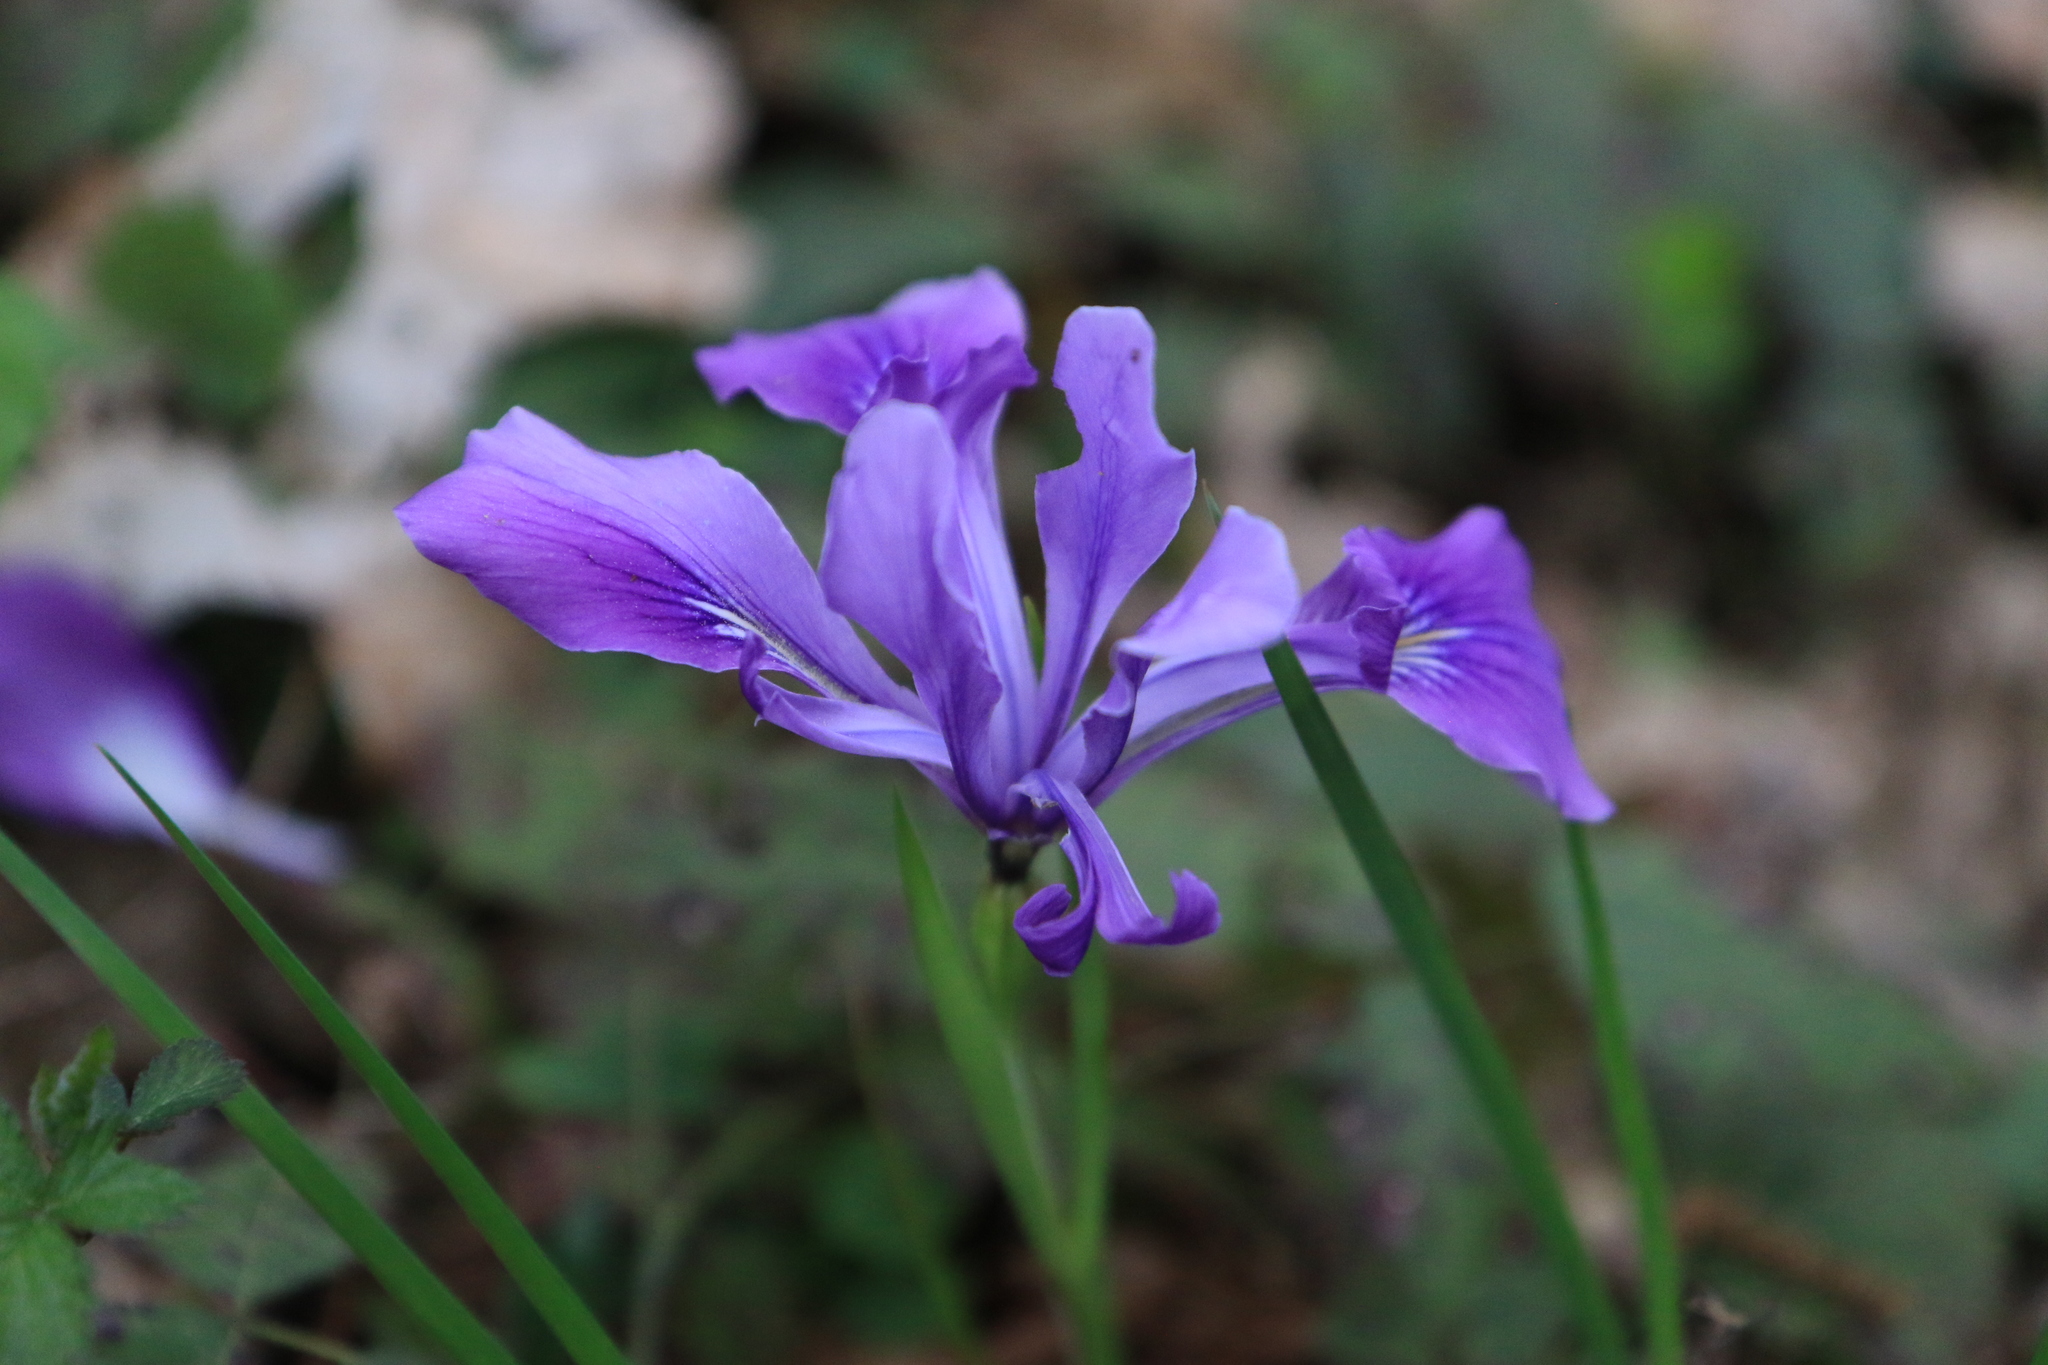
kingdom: Plantae
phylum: Tracheophyta
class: Liliopsida
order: Asparagales
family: Iridaceae
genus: Iris
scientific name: Iris tenax
